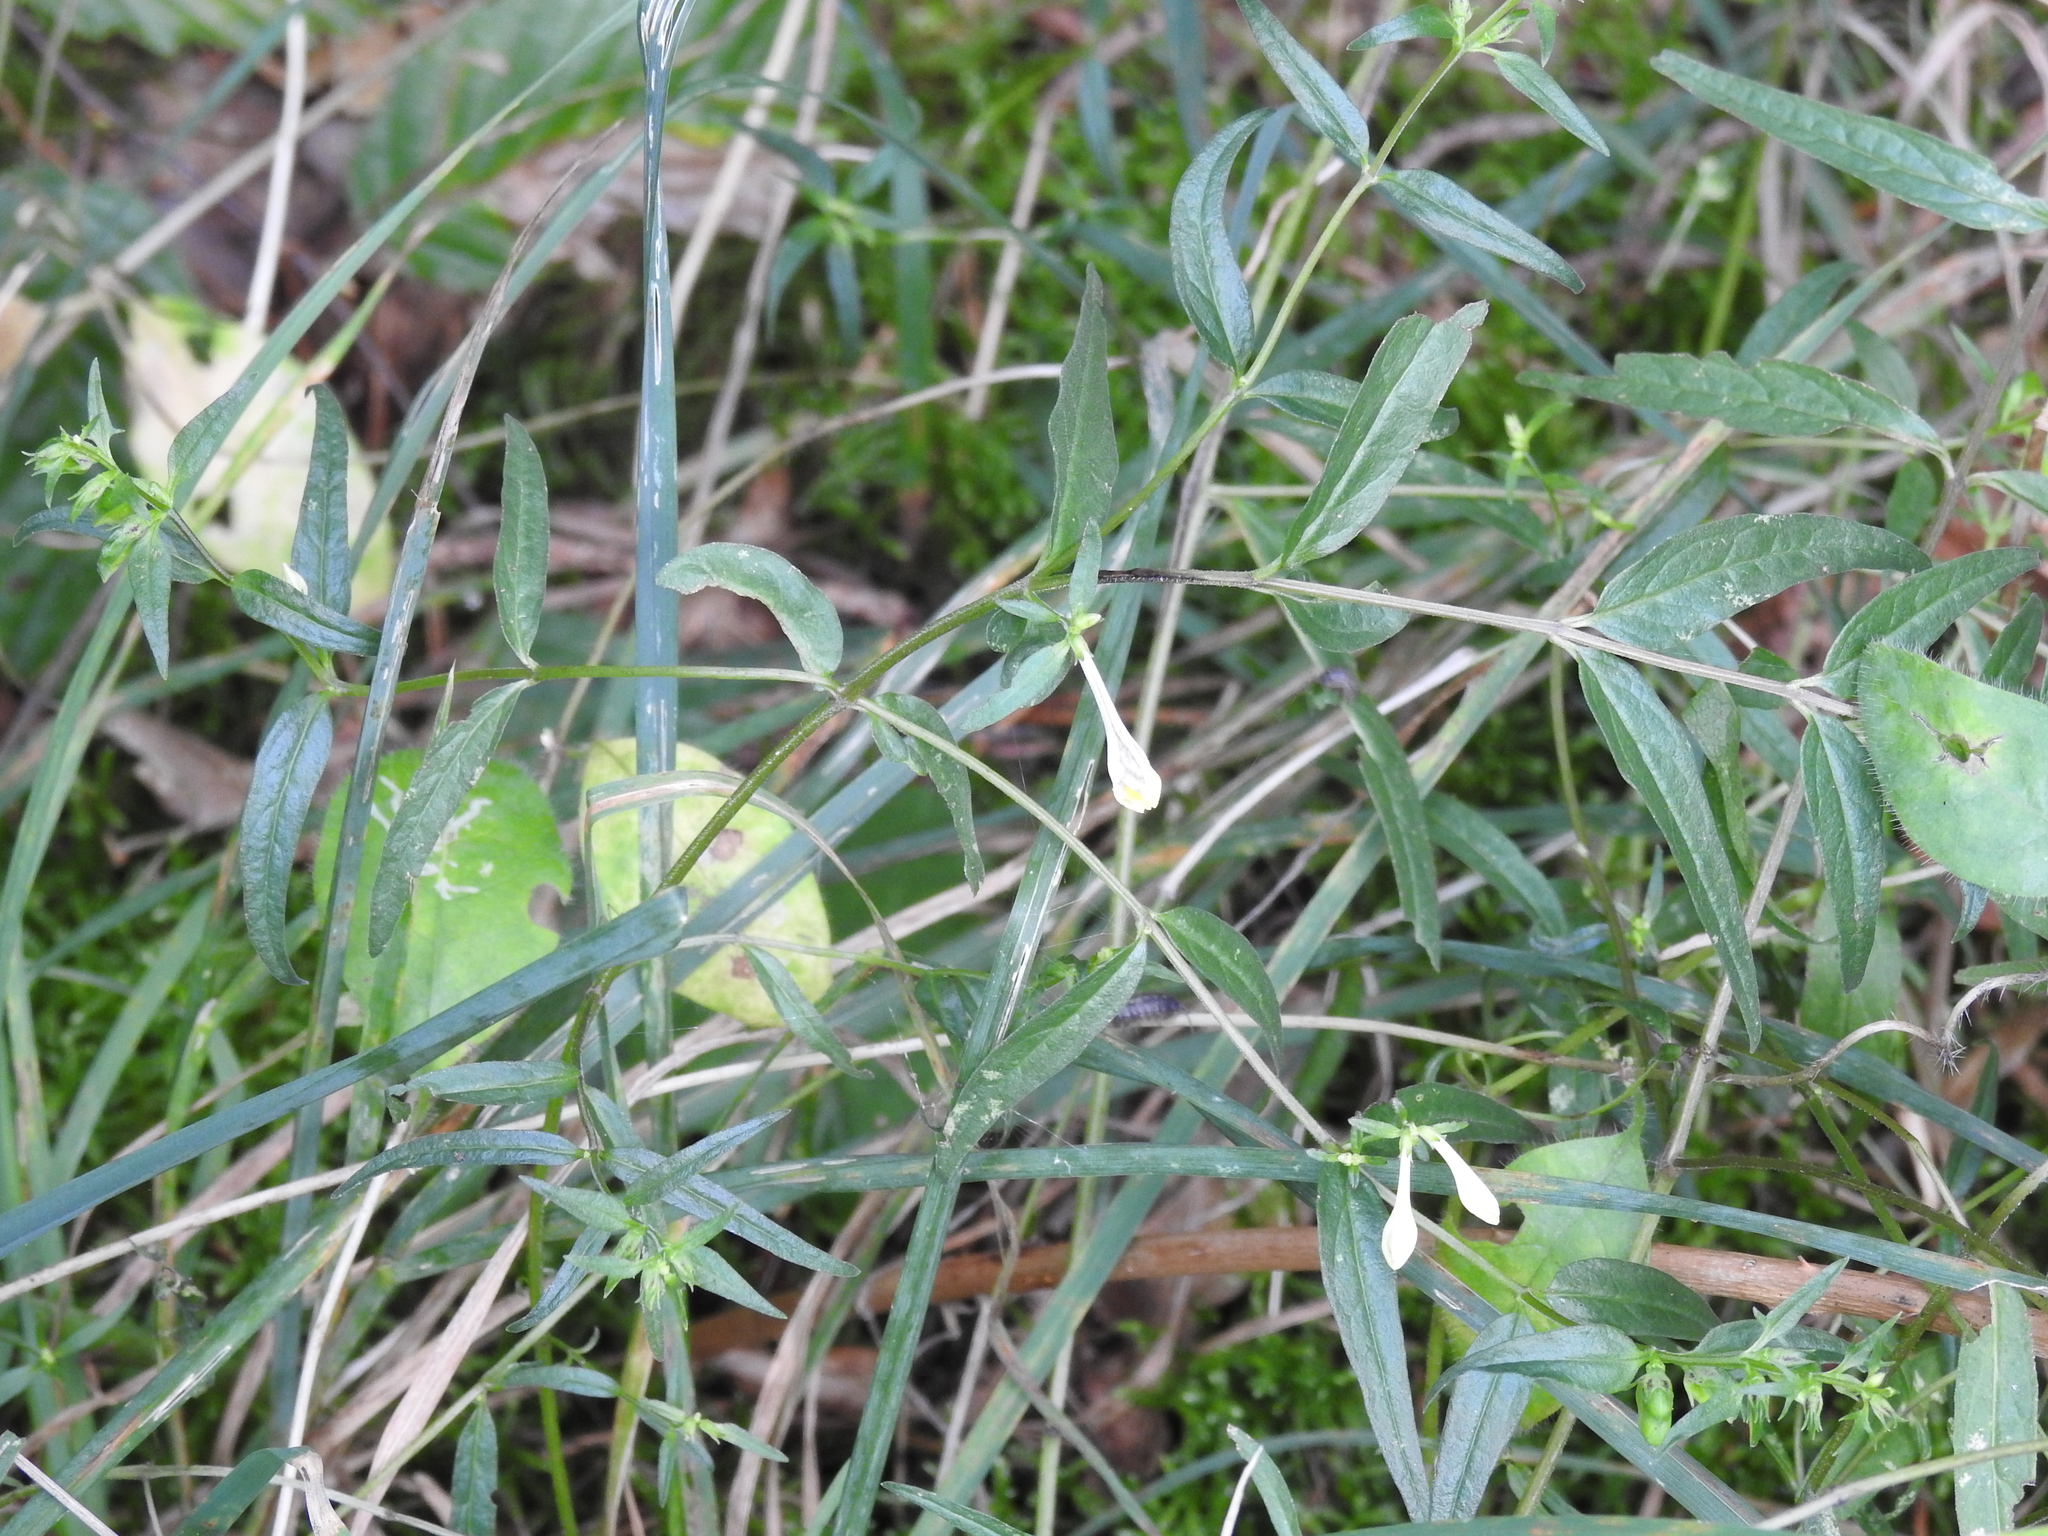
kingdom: Plantae
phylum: Tracheophyta
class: Magnoliopsida
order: Lamiales
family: Orobanchaceae
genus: Melampyrum
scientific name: Melampyrum pratense
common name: Common cow-wheat
